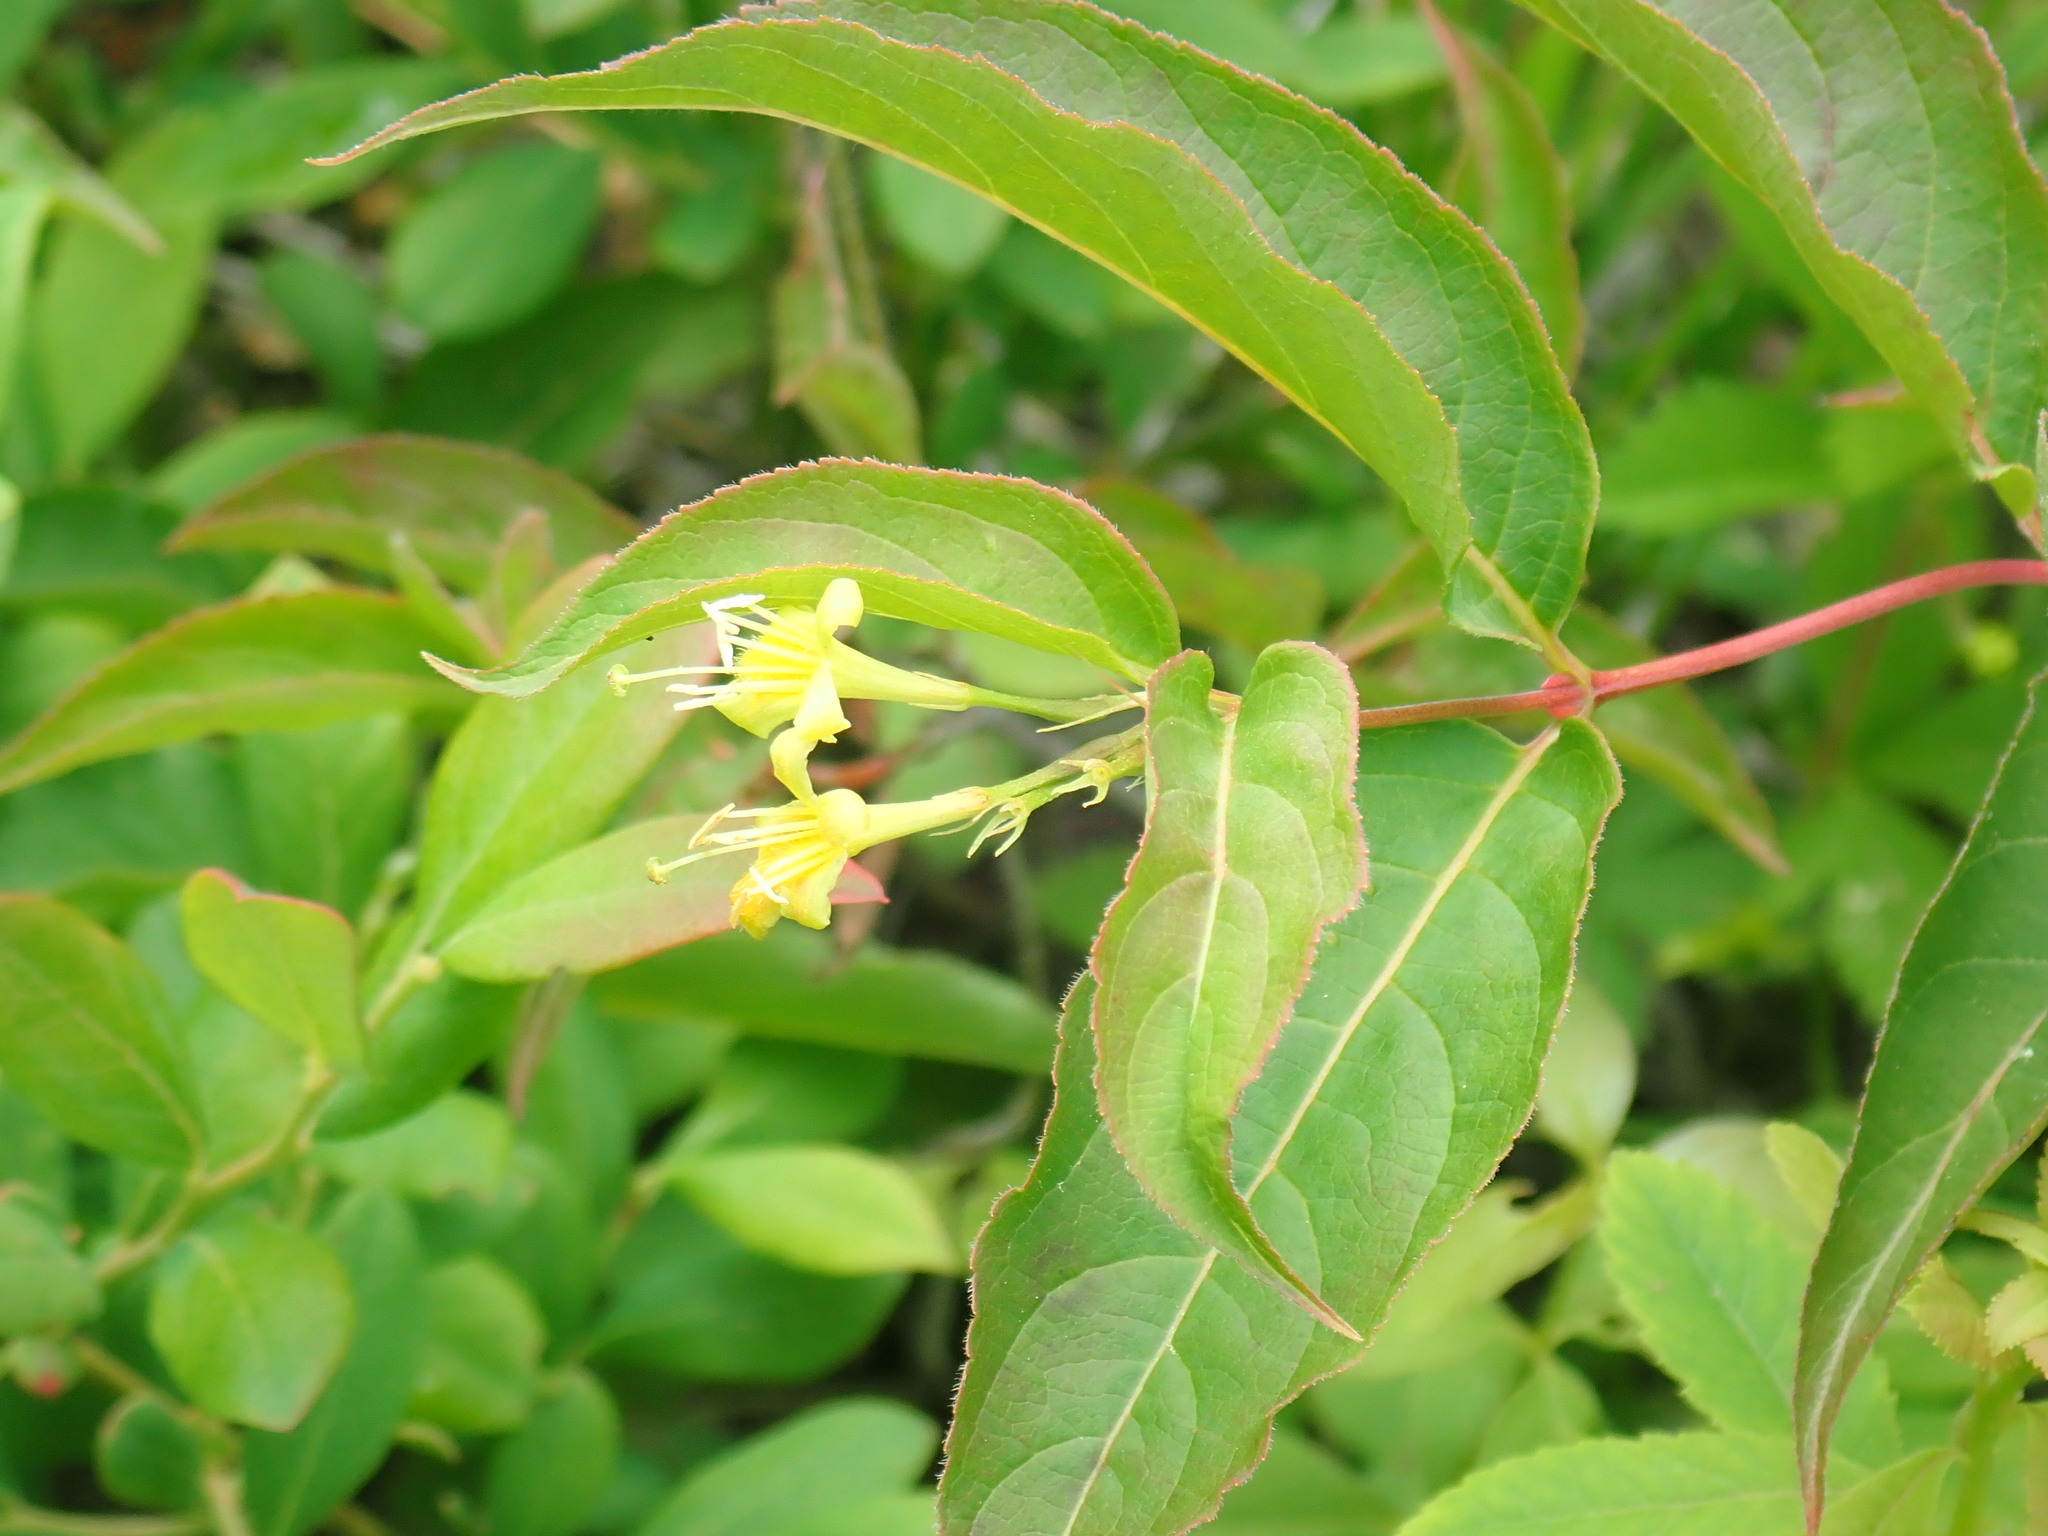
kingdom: Plantae
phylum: Tracheophyta
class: Magnoliopsida
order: Dipsacales
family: Caprifoliaceae
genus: Diervilla
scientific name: Diervilla lonicera
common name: Bush-honeysuckle
